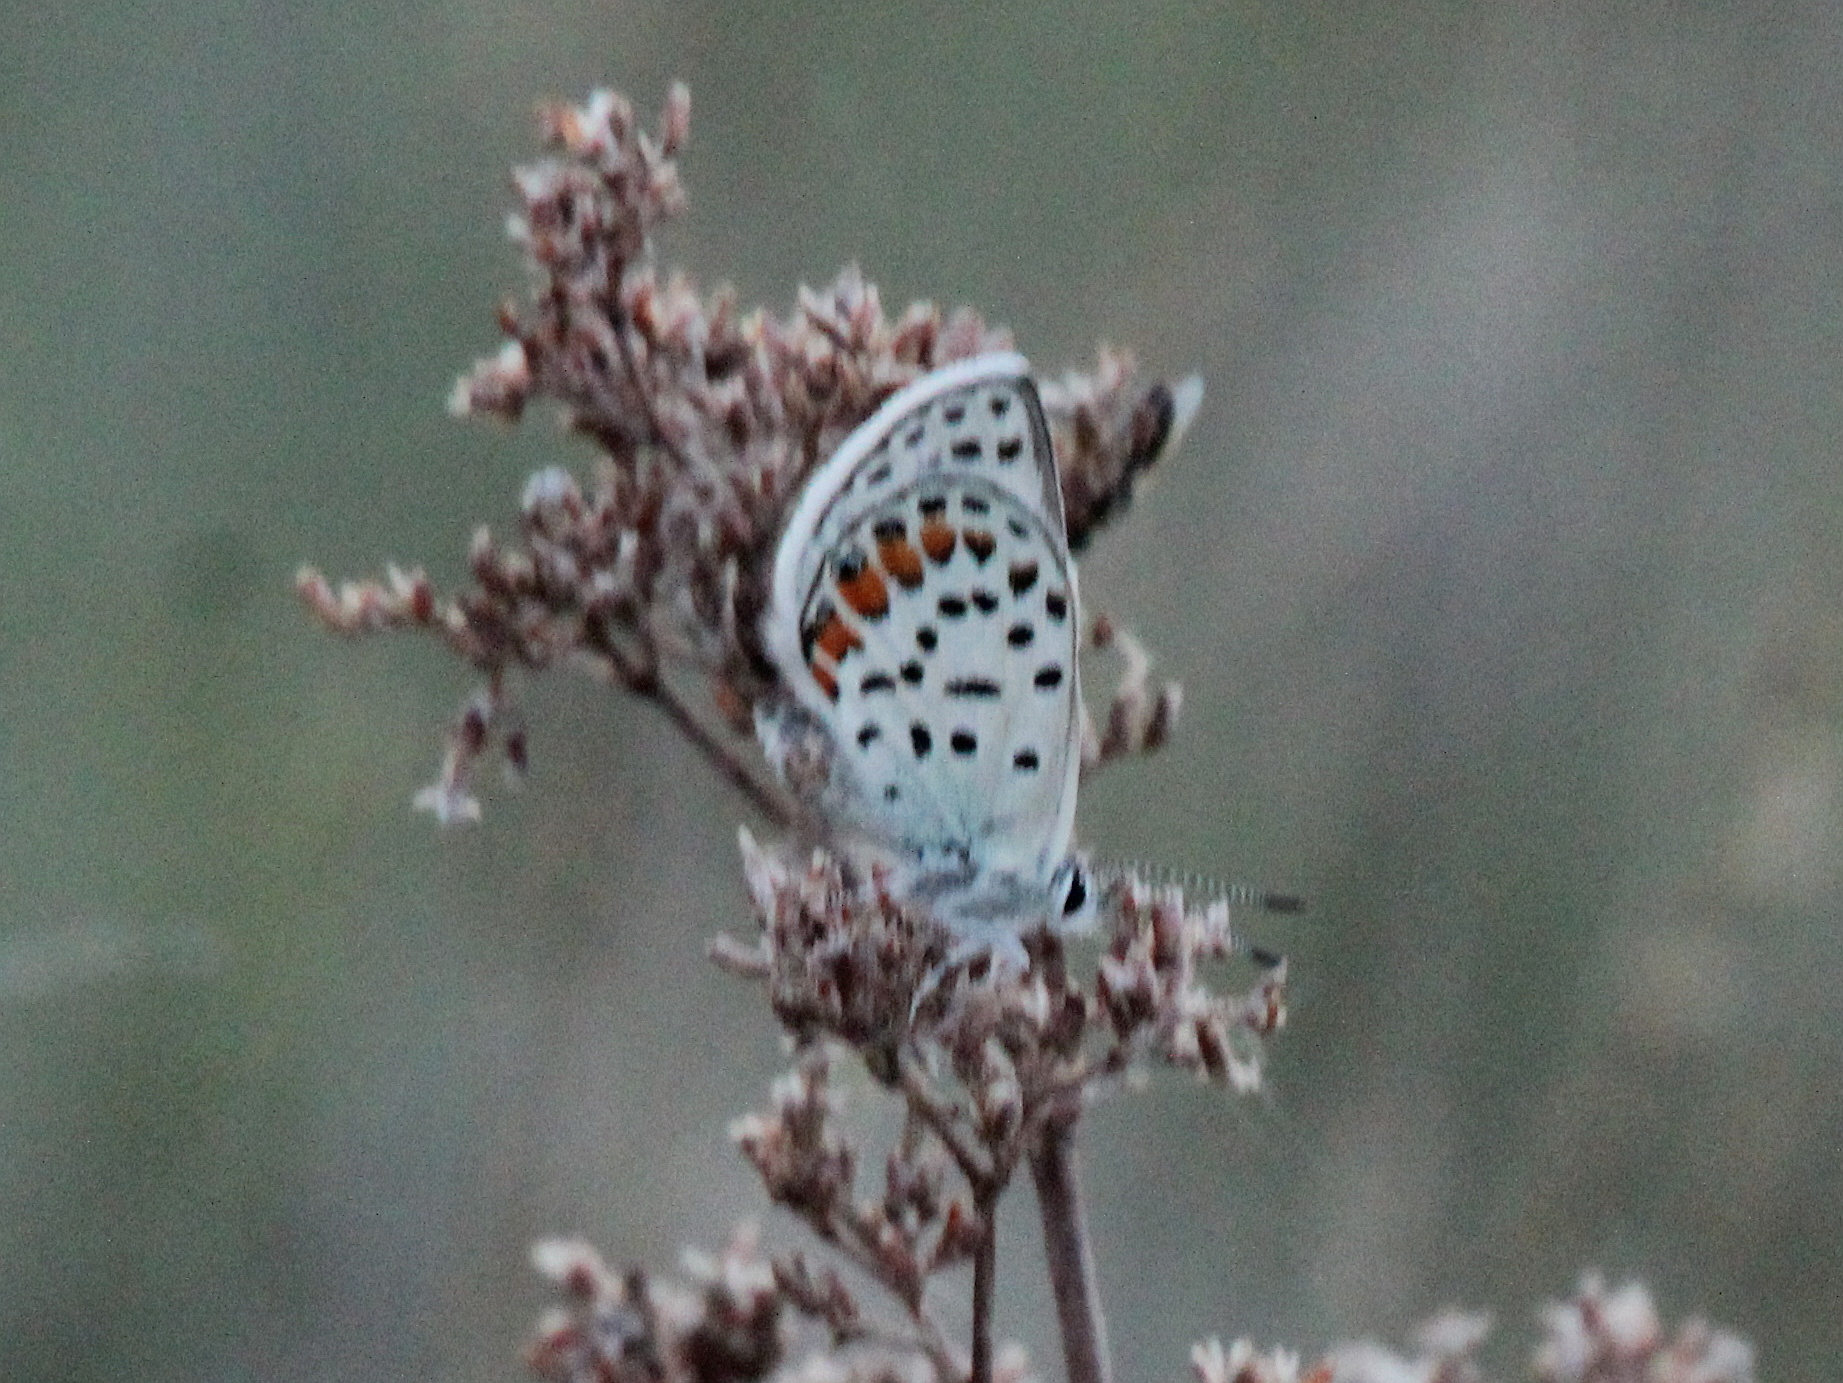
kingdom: Animalia
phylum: Arthropoda
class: Insecta
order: Lepidoptera
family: Lycaenidae
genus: Glabroculus
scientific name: Glabroculus cyane
